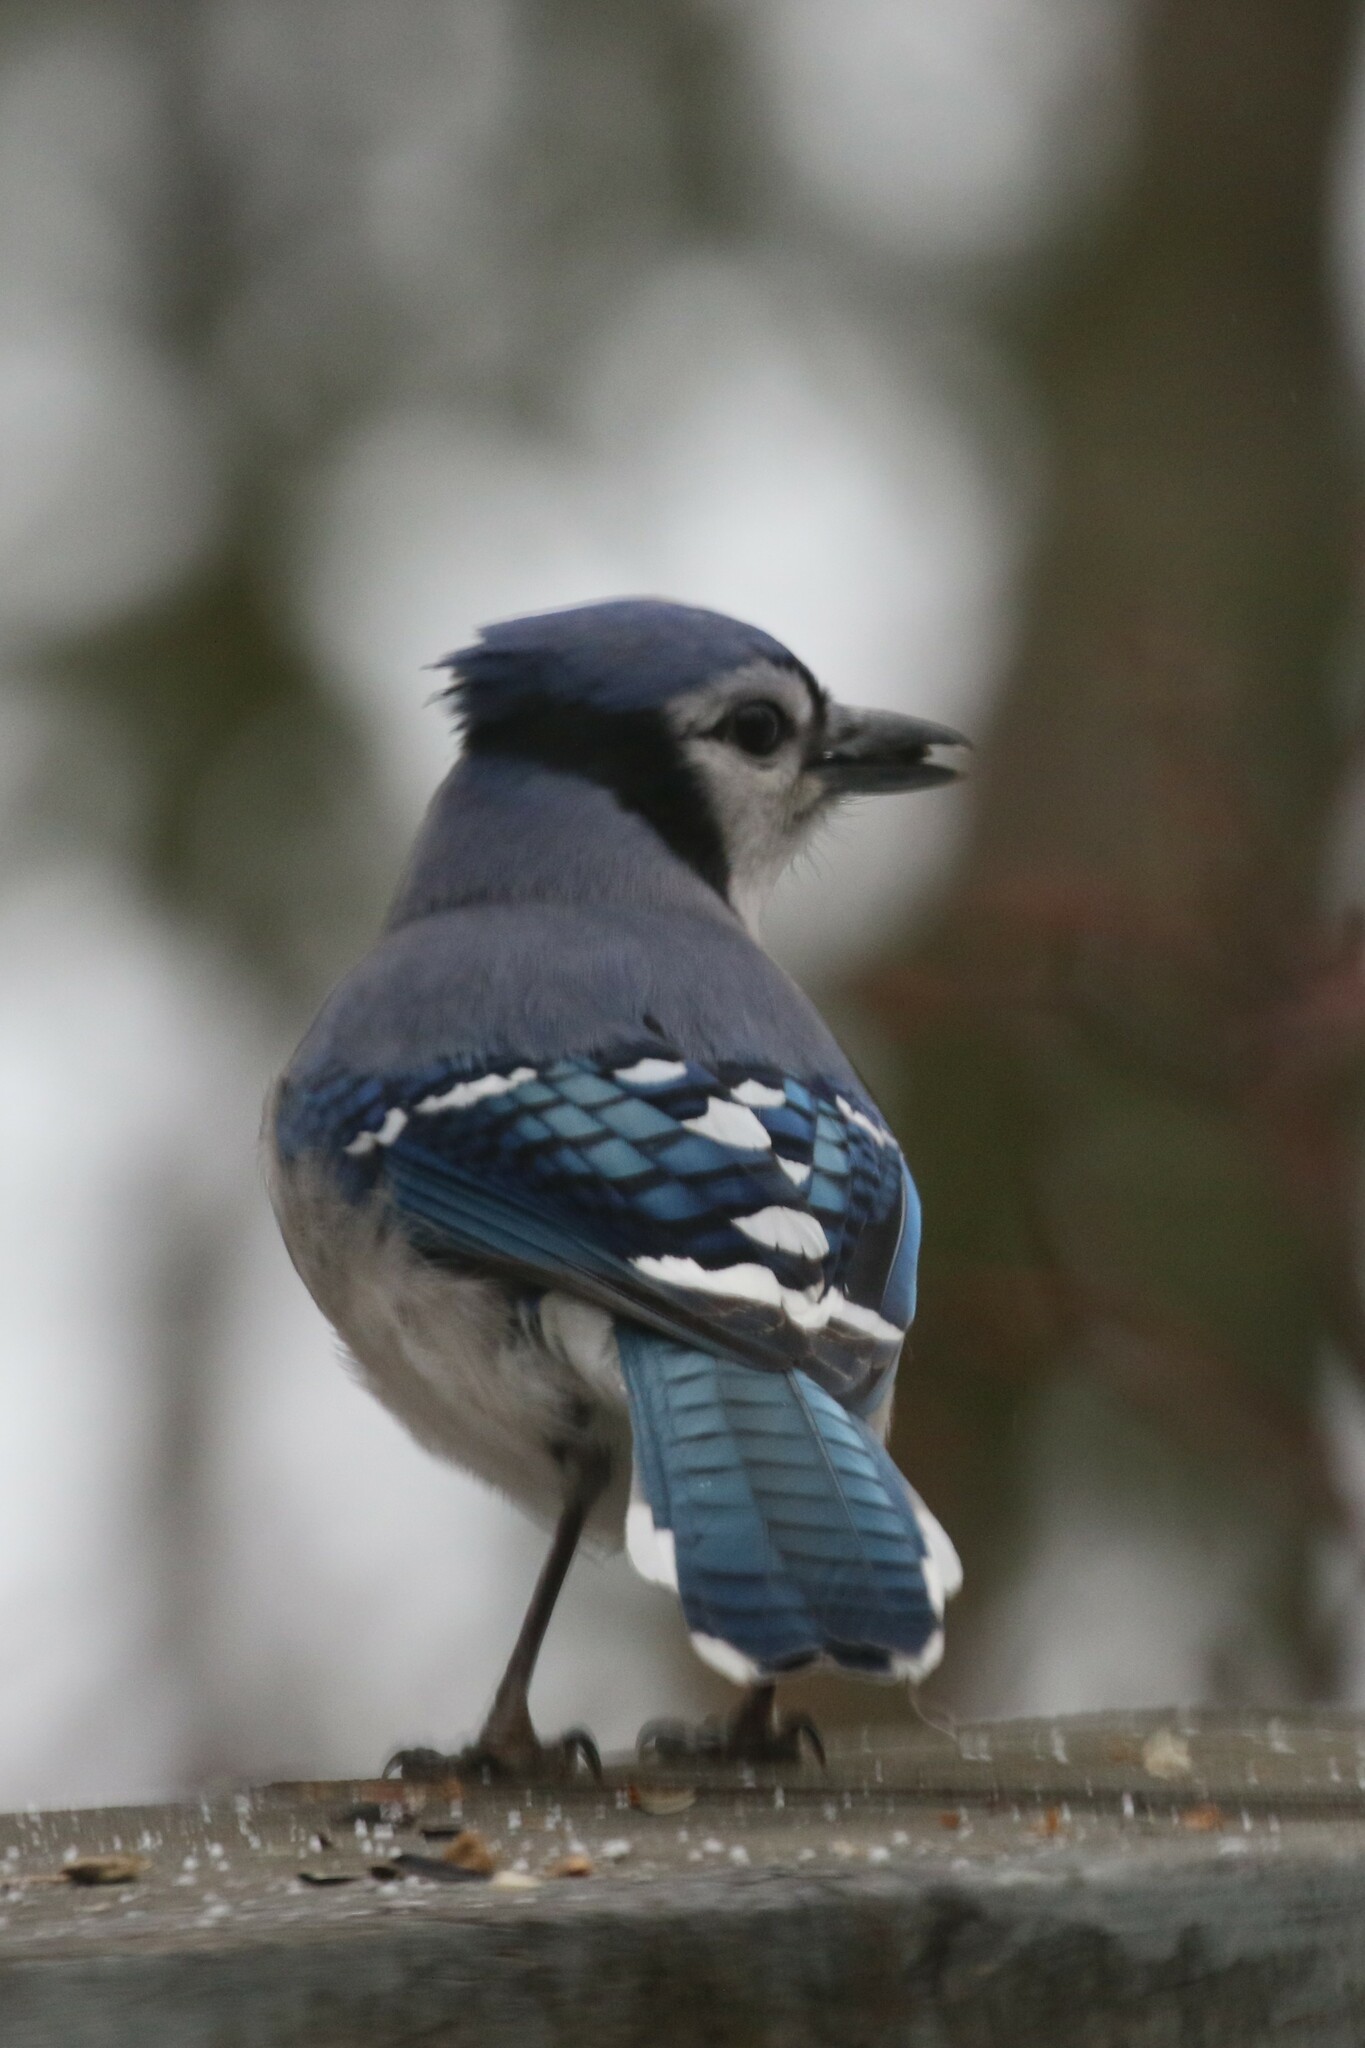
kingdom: Animalia
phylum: Chordata
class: Aves
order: Passeriformes
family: Corvidae
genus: Cyanocitta
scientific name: Cyanocitta cristata
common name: Blue jay
